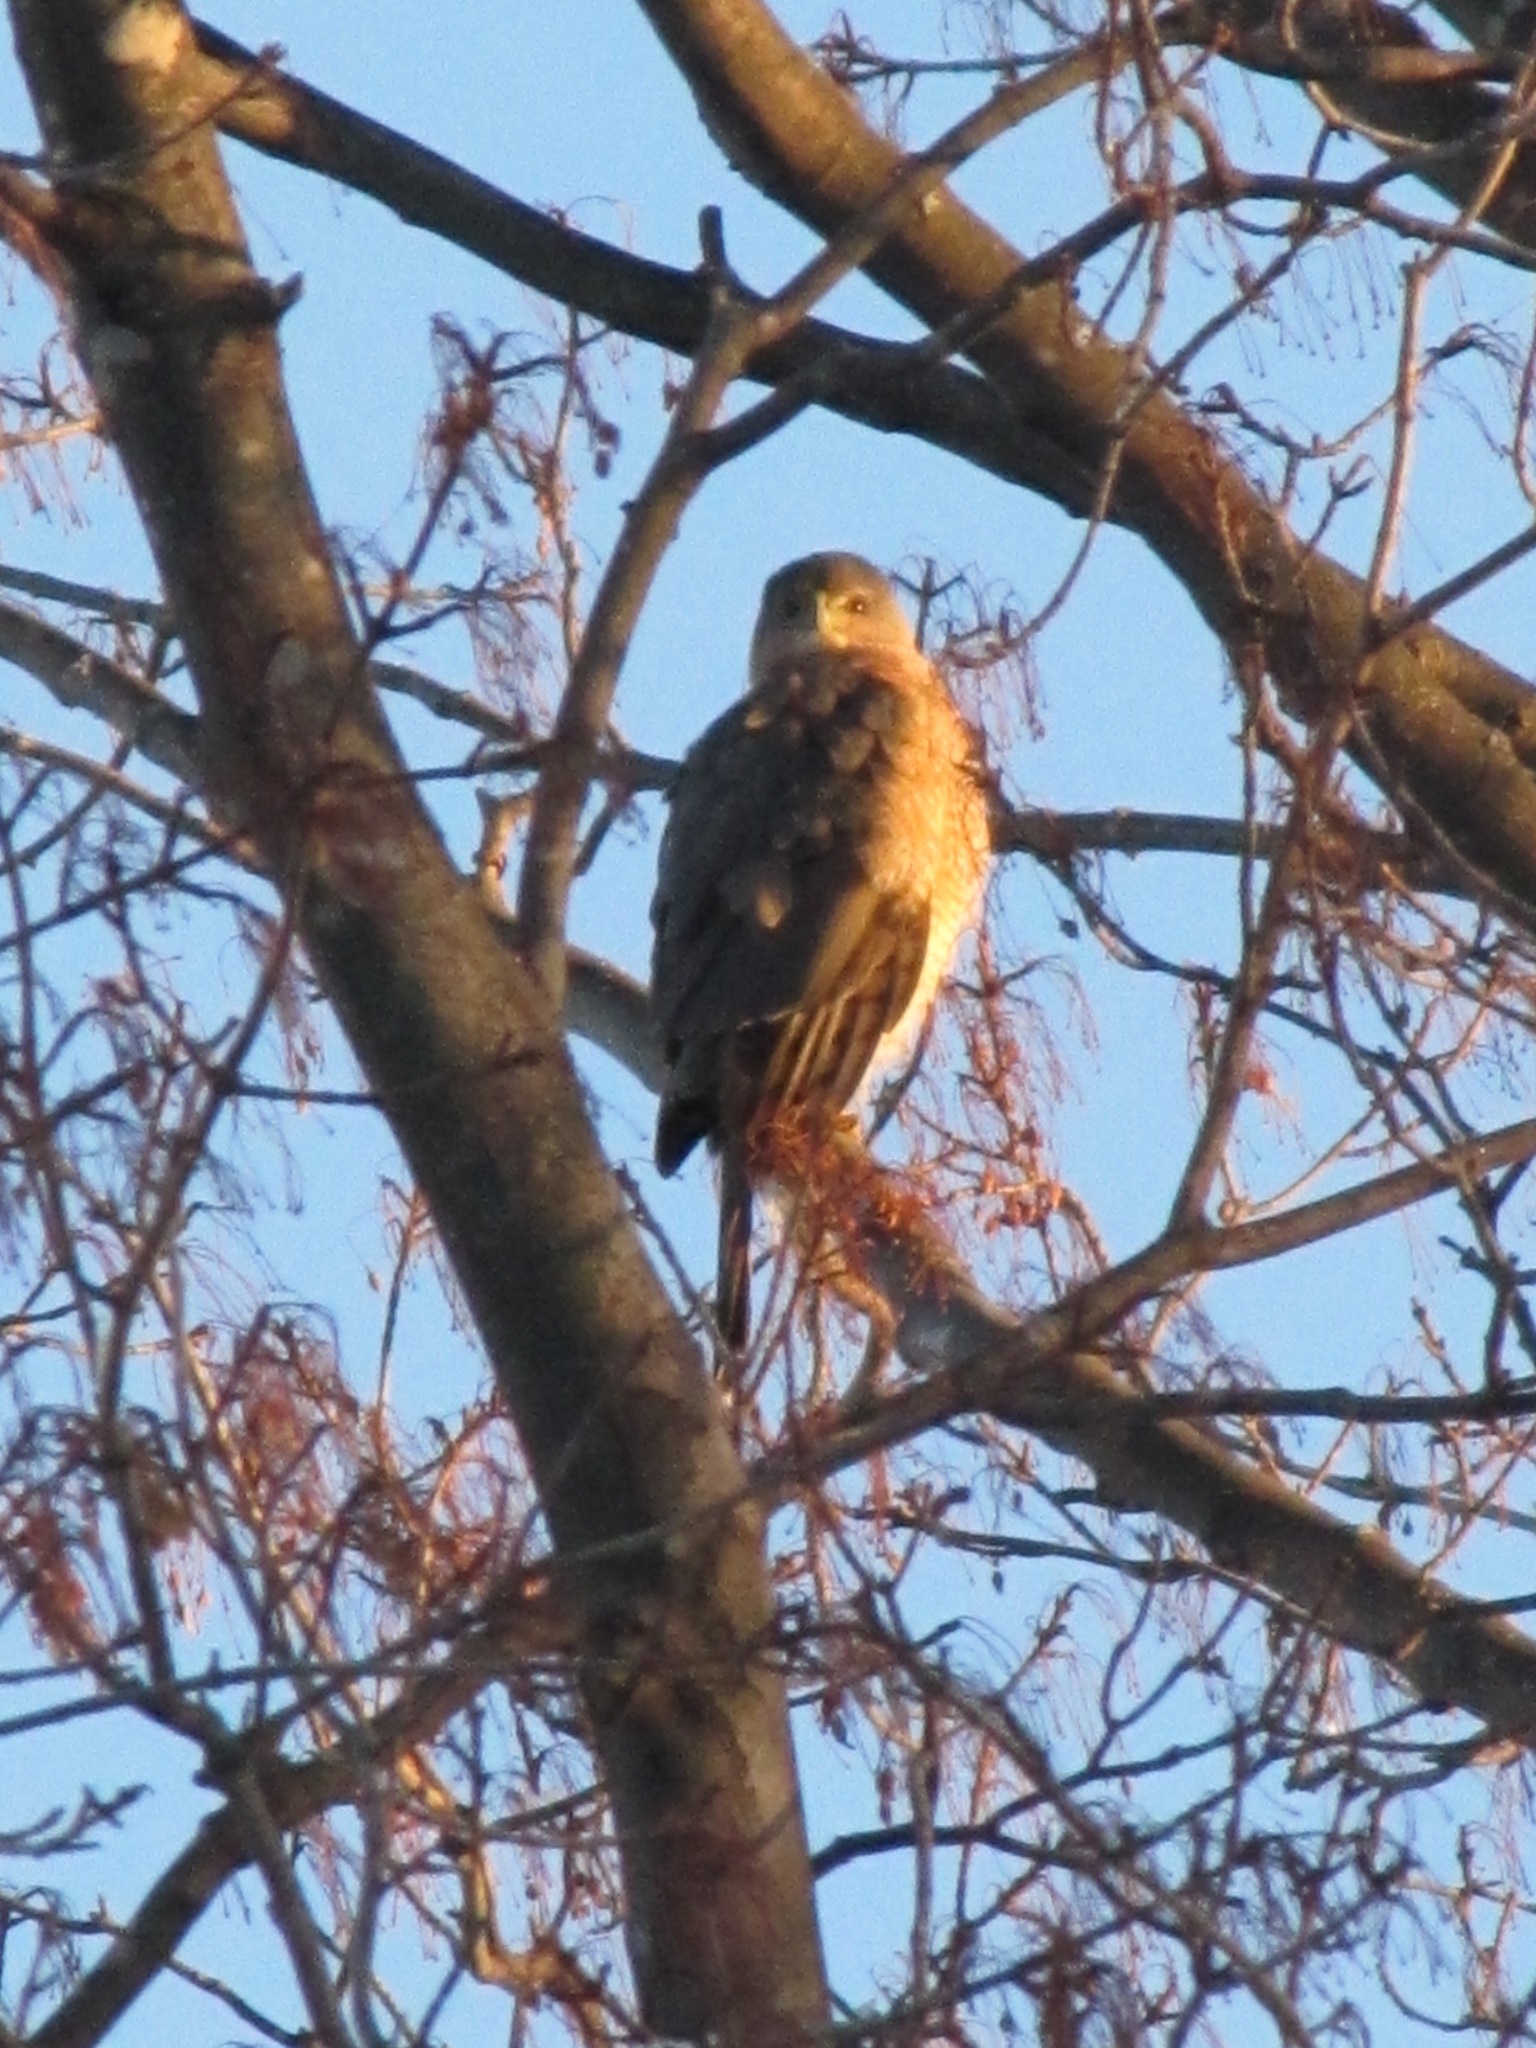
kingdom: Animalia
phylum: Chordata
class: Aves
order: Accipitriformes
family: Accipitridae
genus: Accipiter
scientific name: Accipiter cooperii
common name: Cooper's hawk
